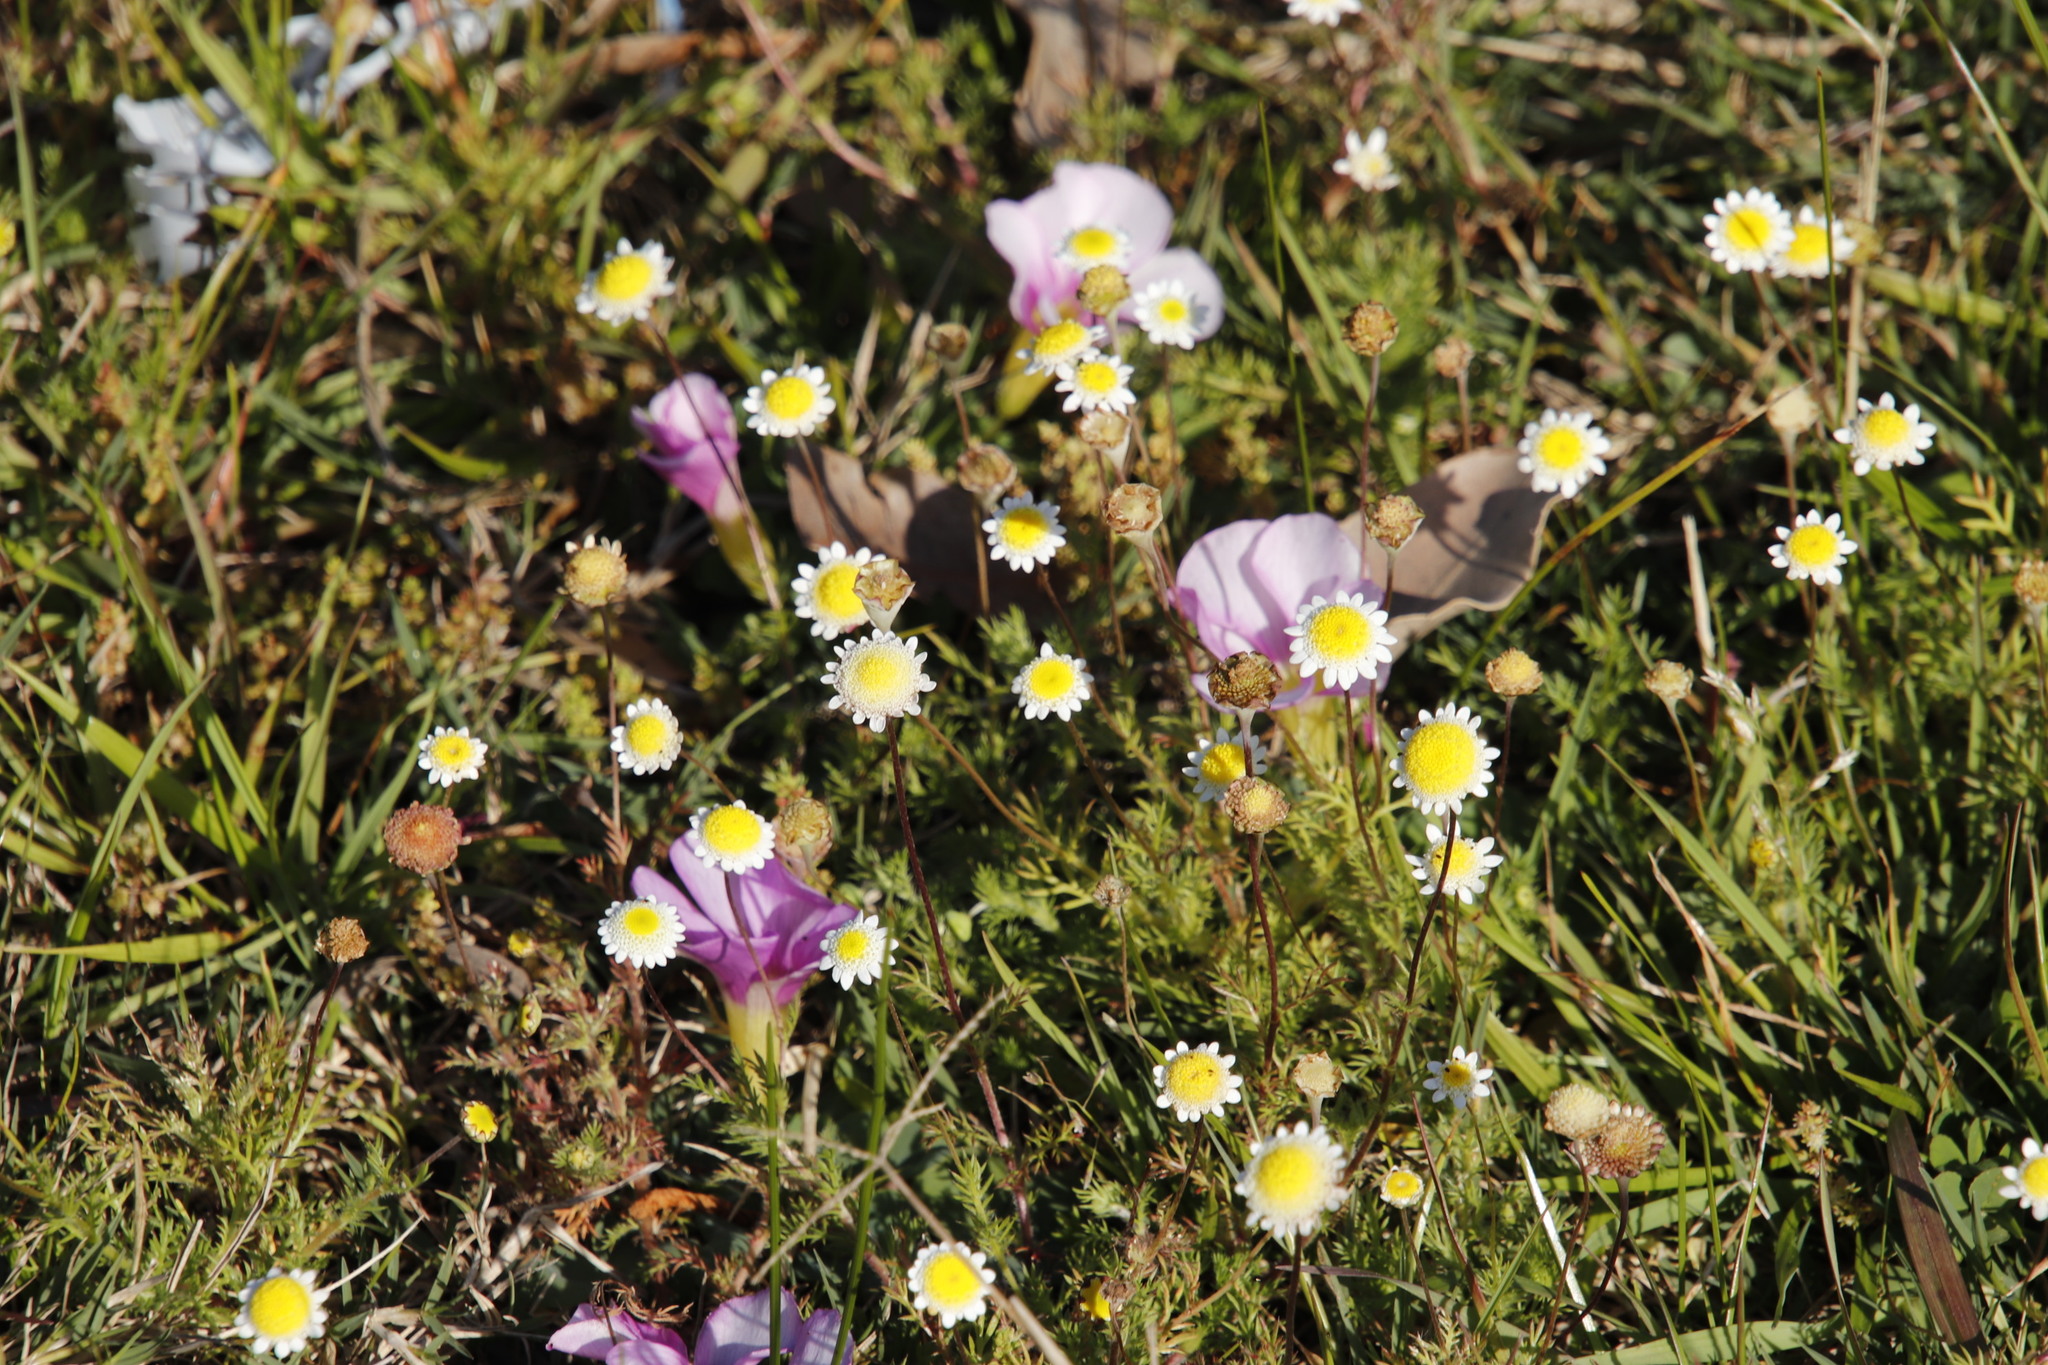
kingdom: Plantae
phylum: Tracheophyta
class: Magnoliopsida
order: Asterales
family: Asteraceae
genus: Cotula
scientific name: Cotula turbinata
